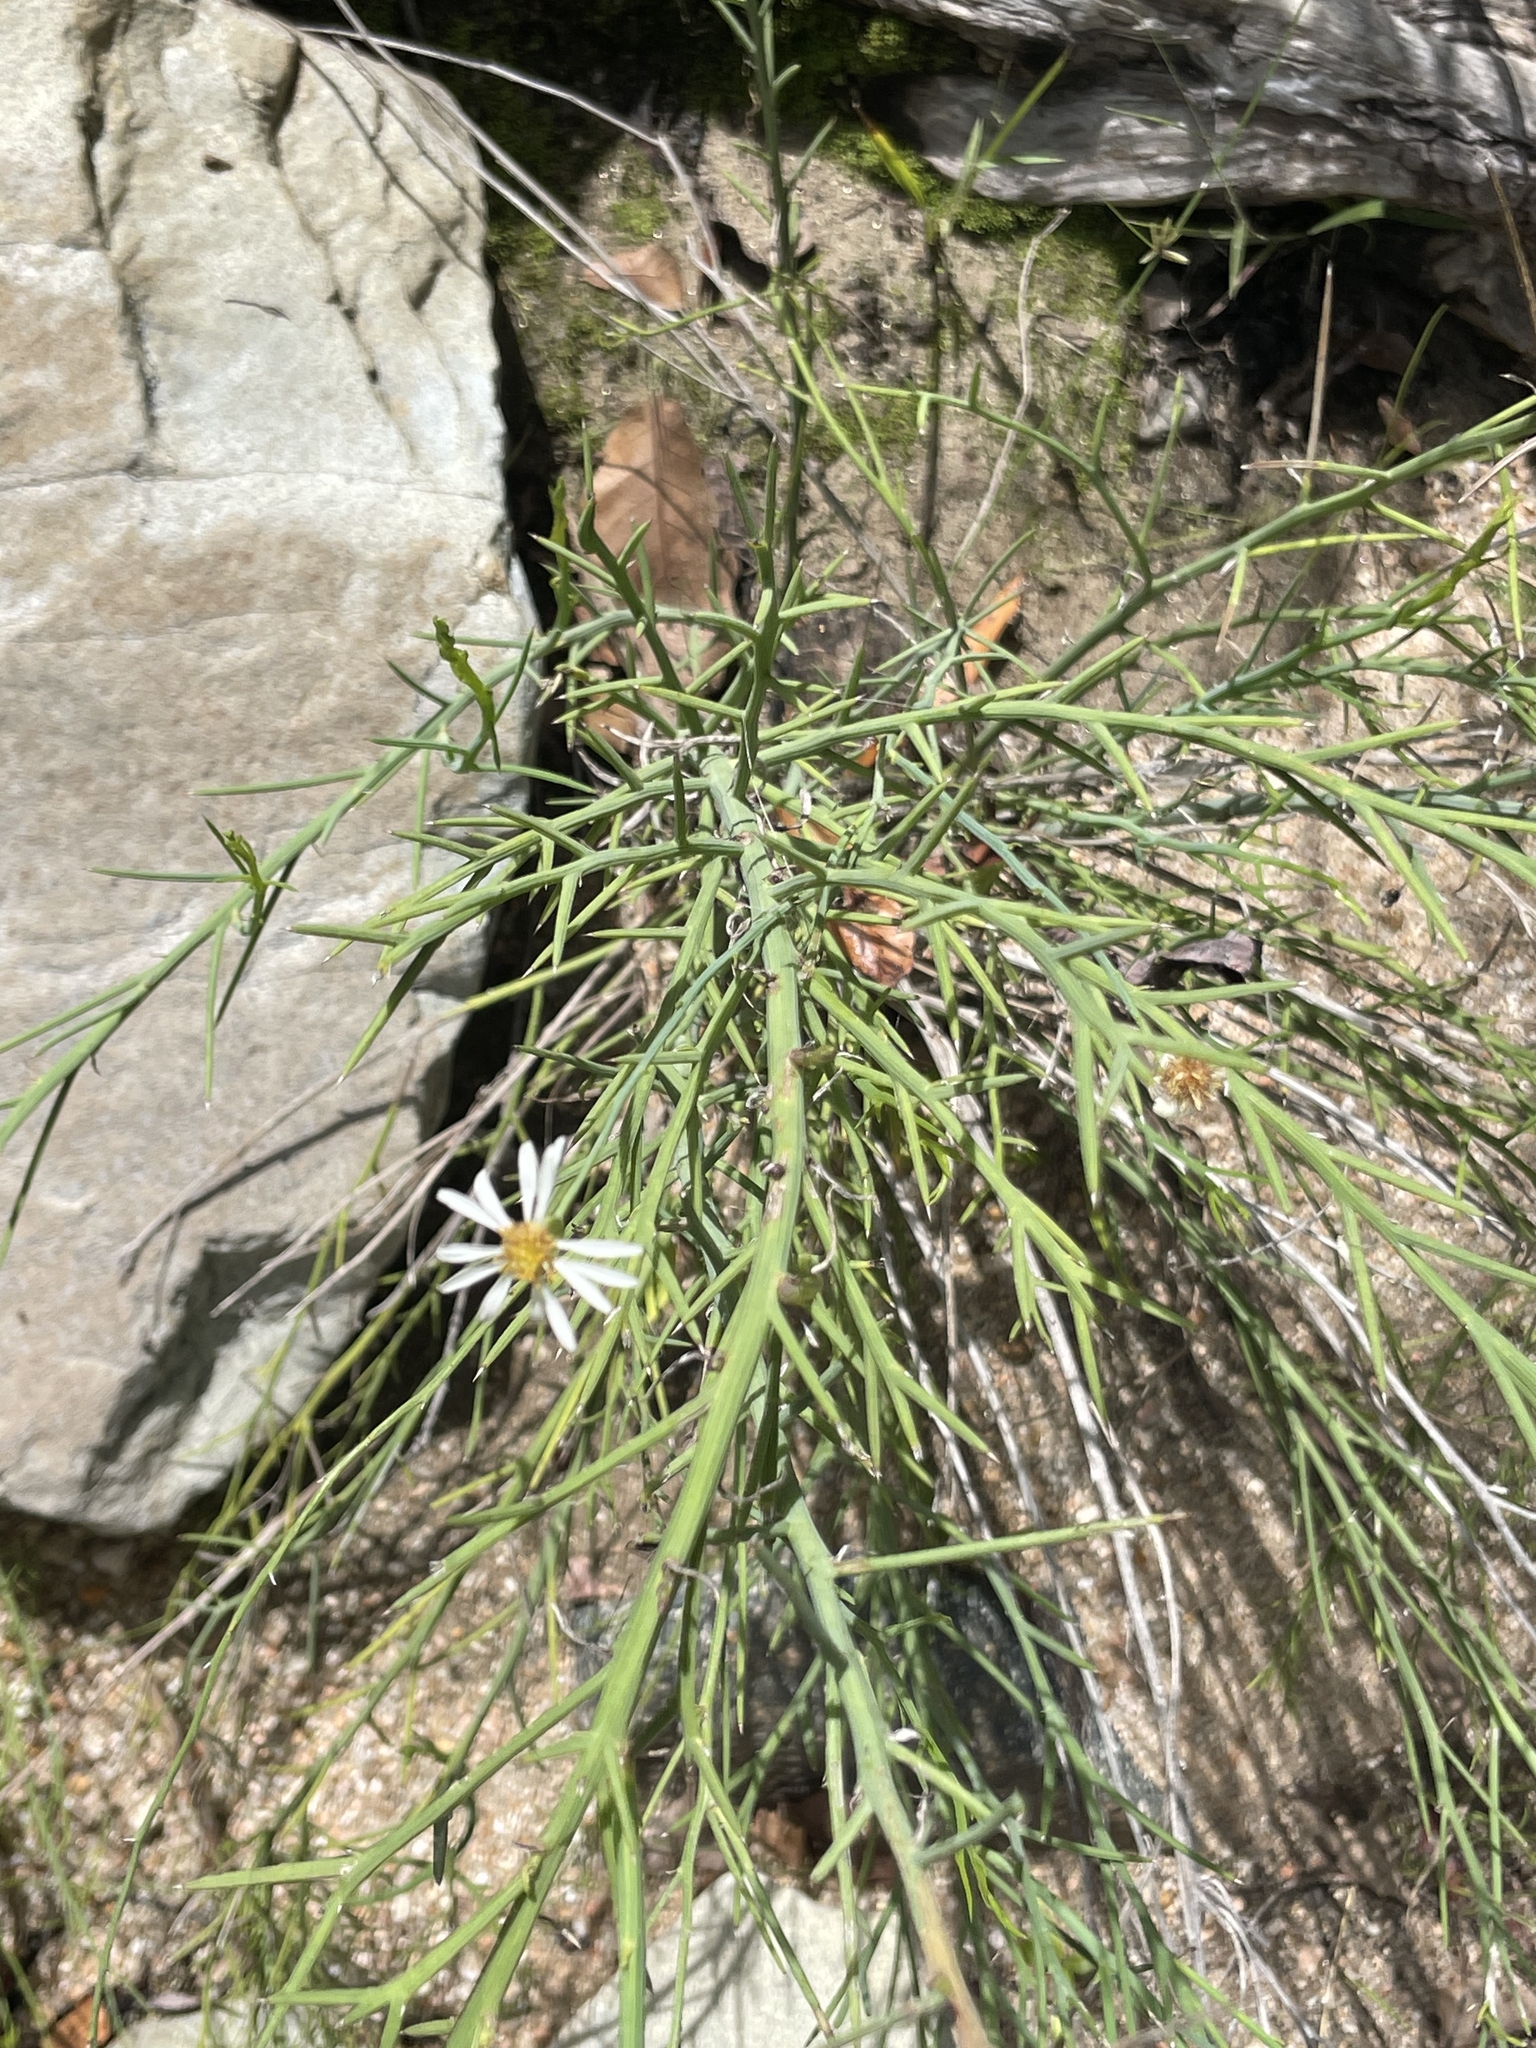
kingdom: Plantae
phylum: Tracheophyta
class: Magnoliopsida
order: Asterales
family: Asteraceae
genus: Chloracantha
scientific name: Chloracantha spinosissima
